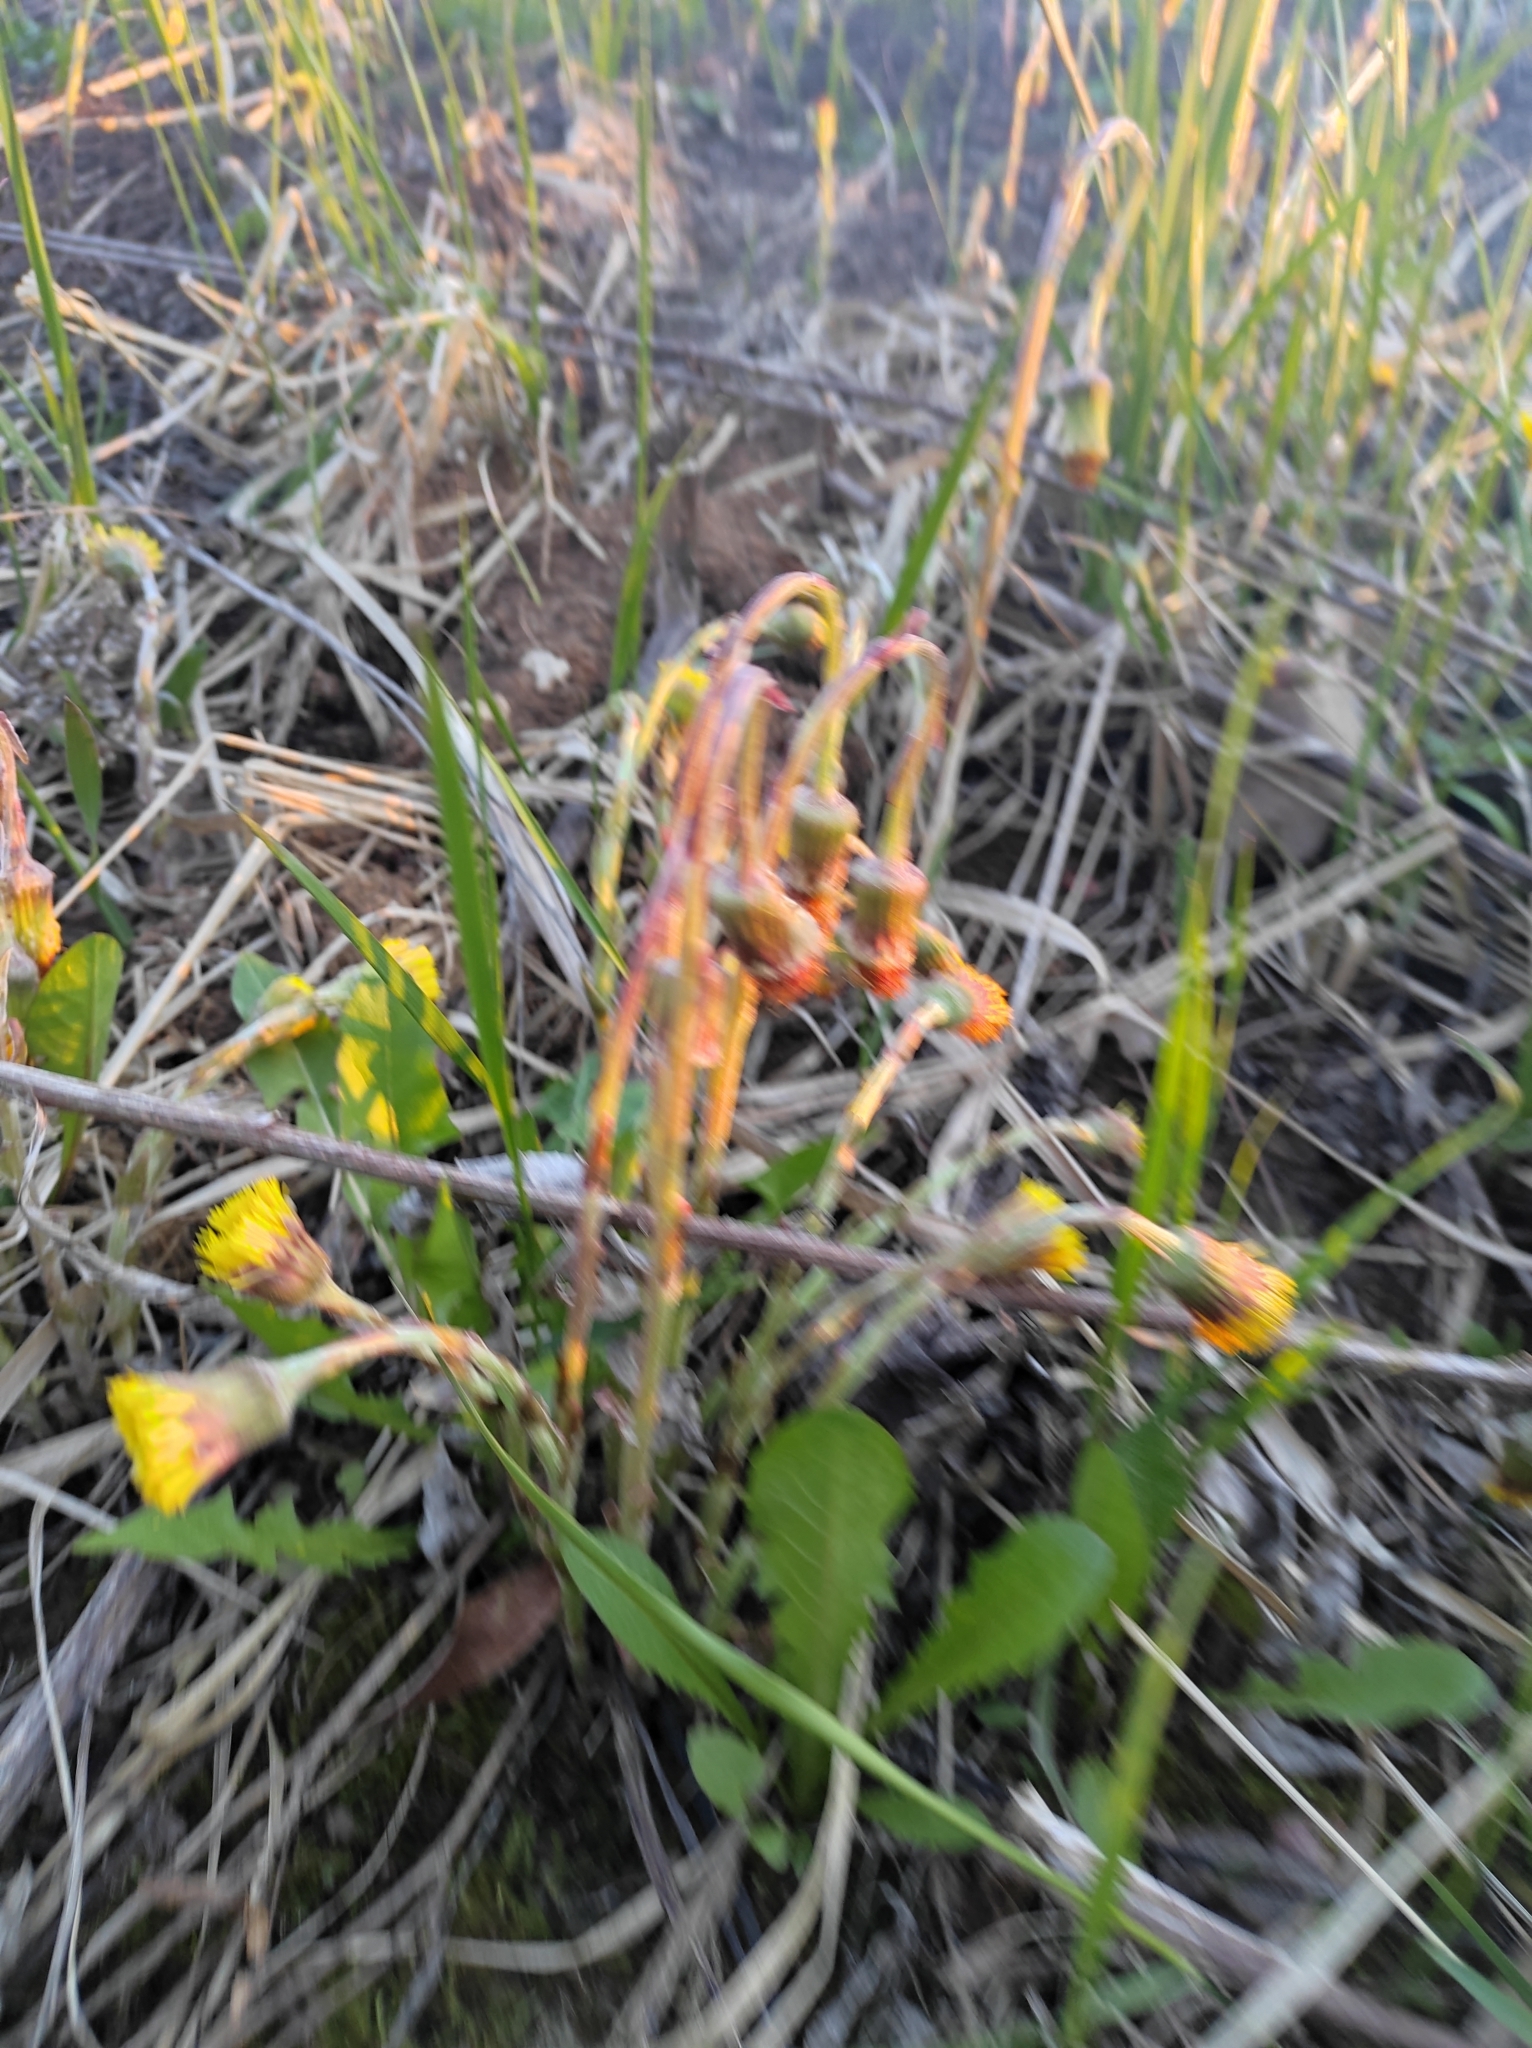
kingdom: Plantae
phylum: Tracheophyta
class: Magnoliopsida
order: Asterales
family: Asteraceae
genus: Tussilago
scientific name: Tussilago farfara
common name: Coltsfoot
